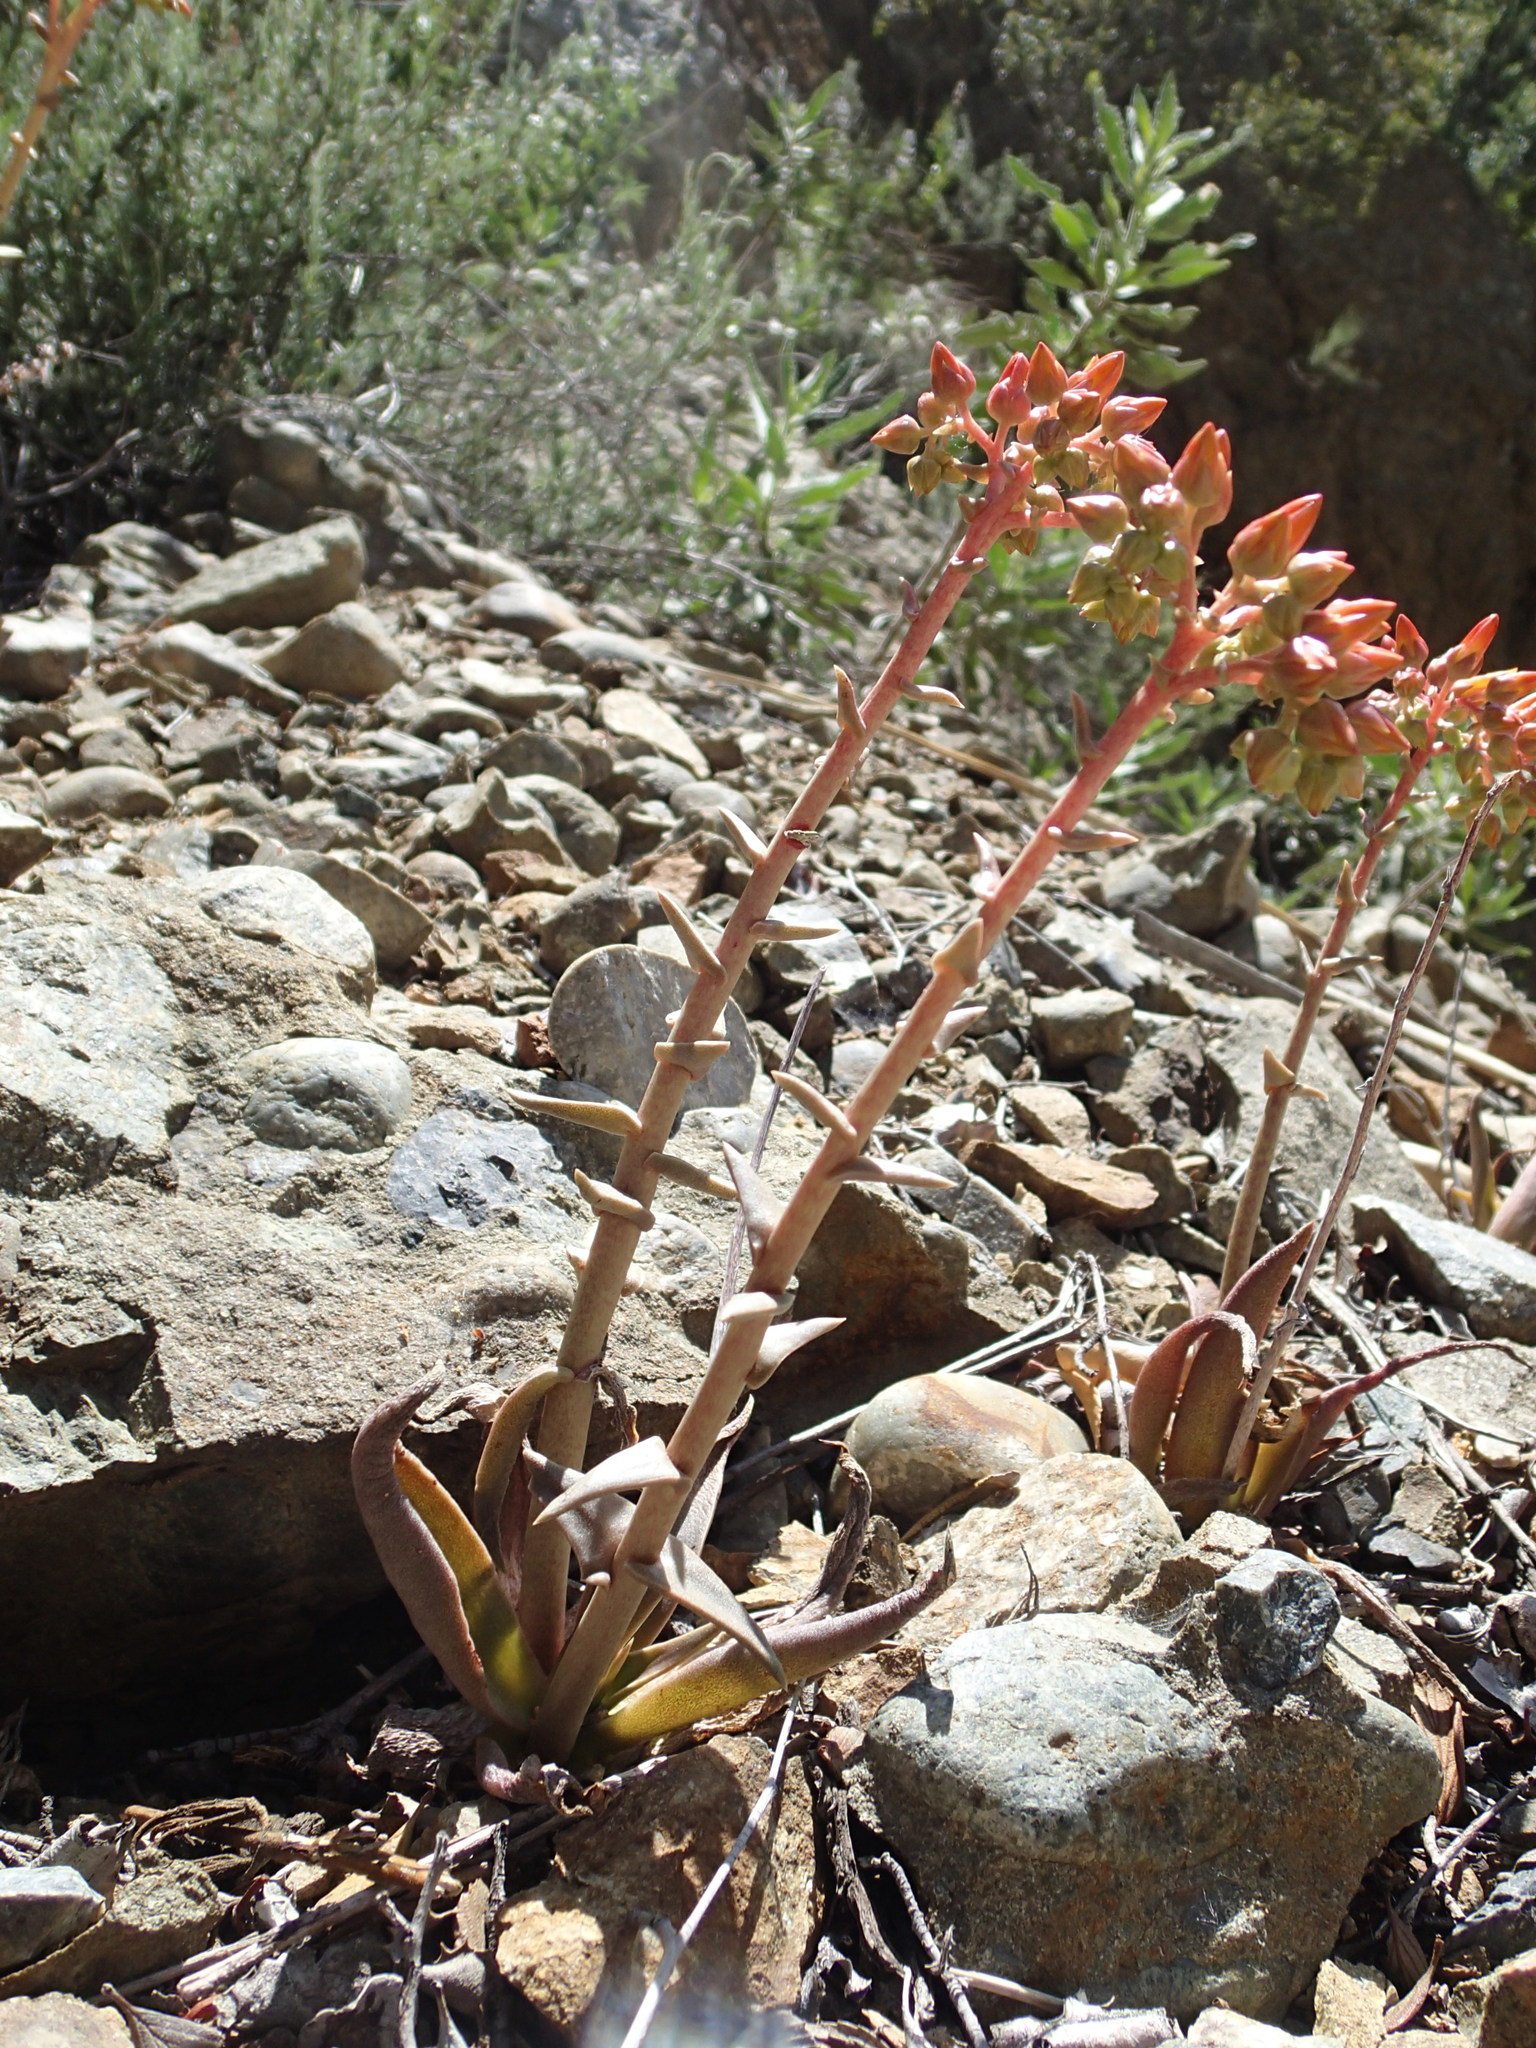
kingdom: Plantae
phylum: Tracheophyta
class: Magnoliopsida
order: Saxifragales
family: Crassulaceae
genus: Dudleya
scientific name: Dudleya lanceolata
